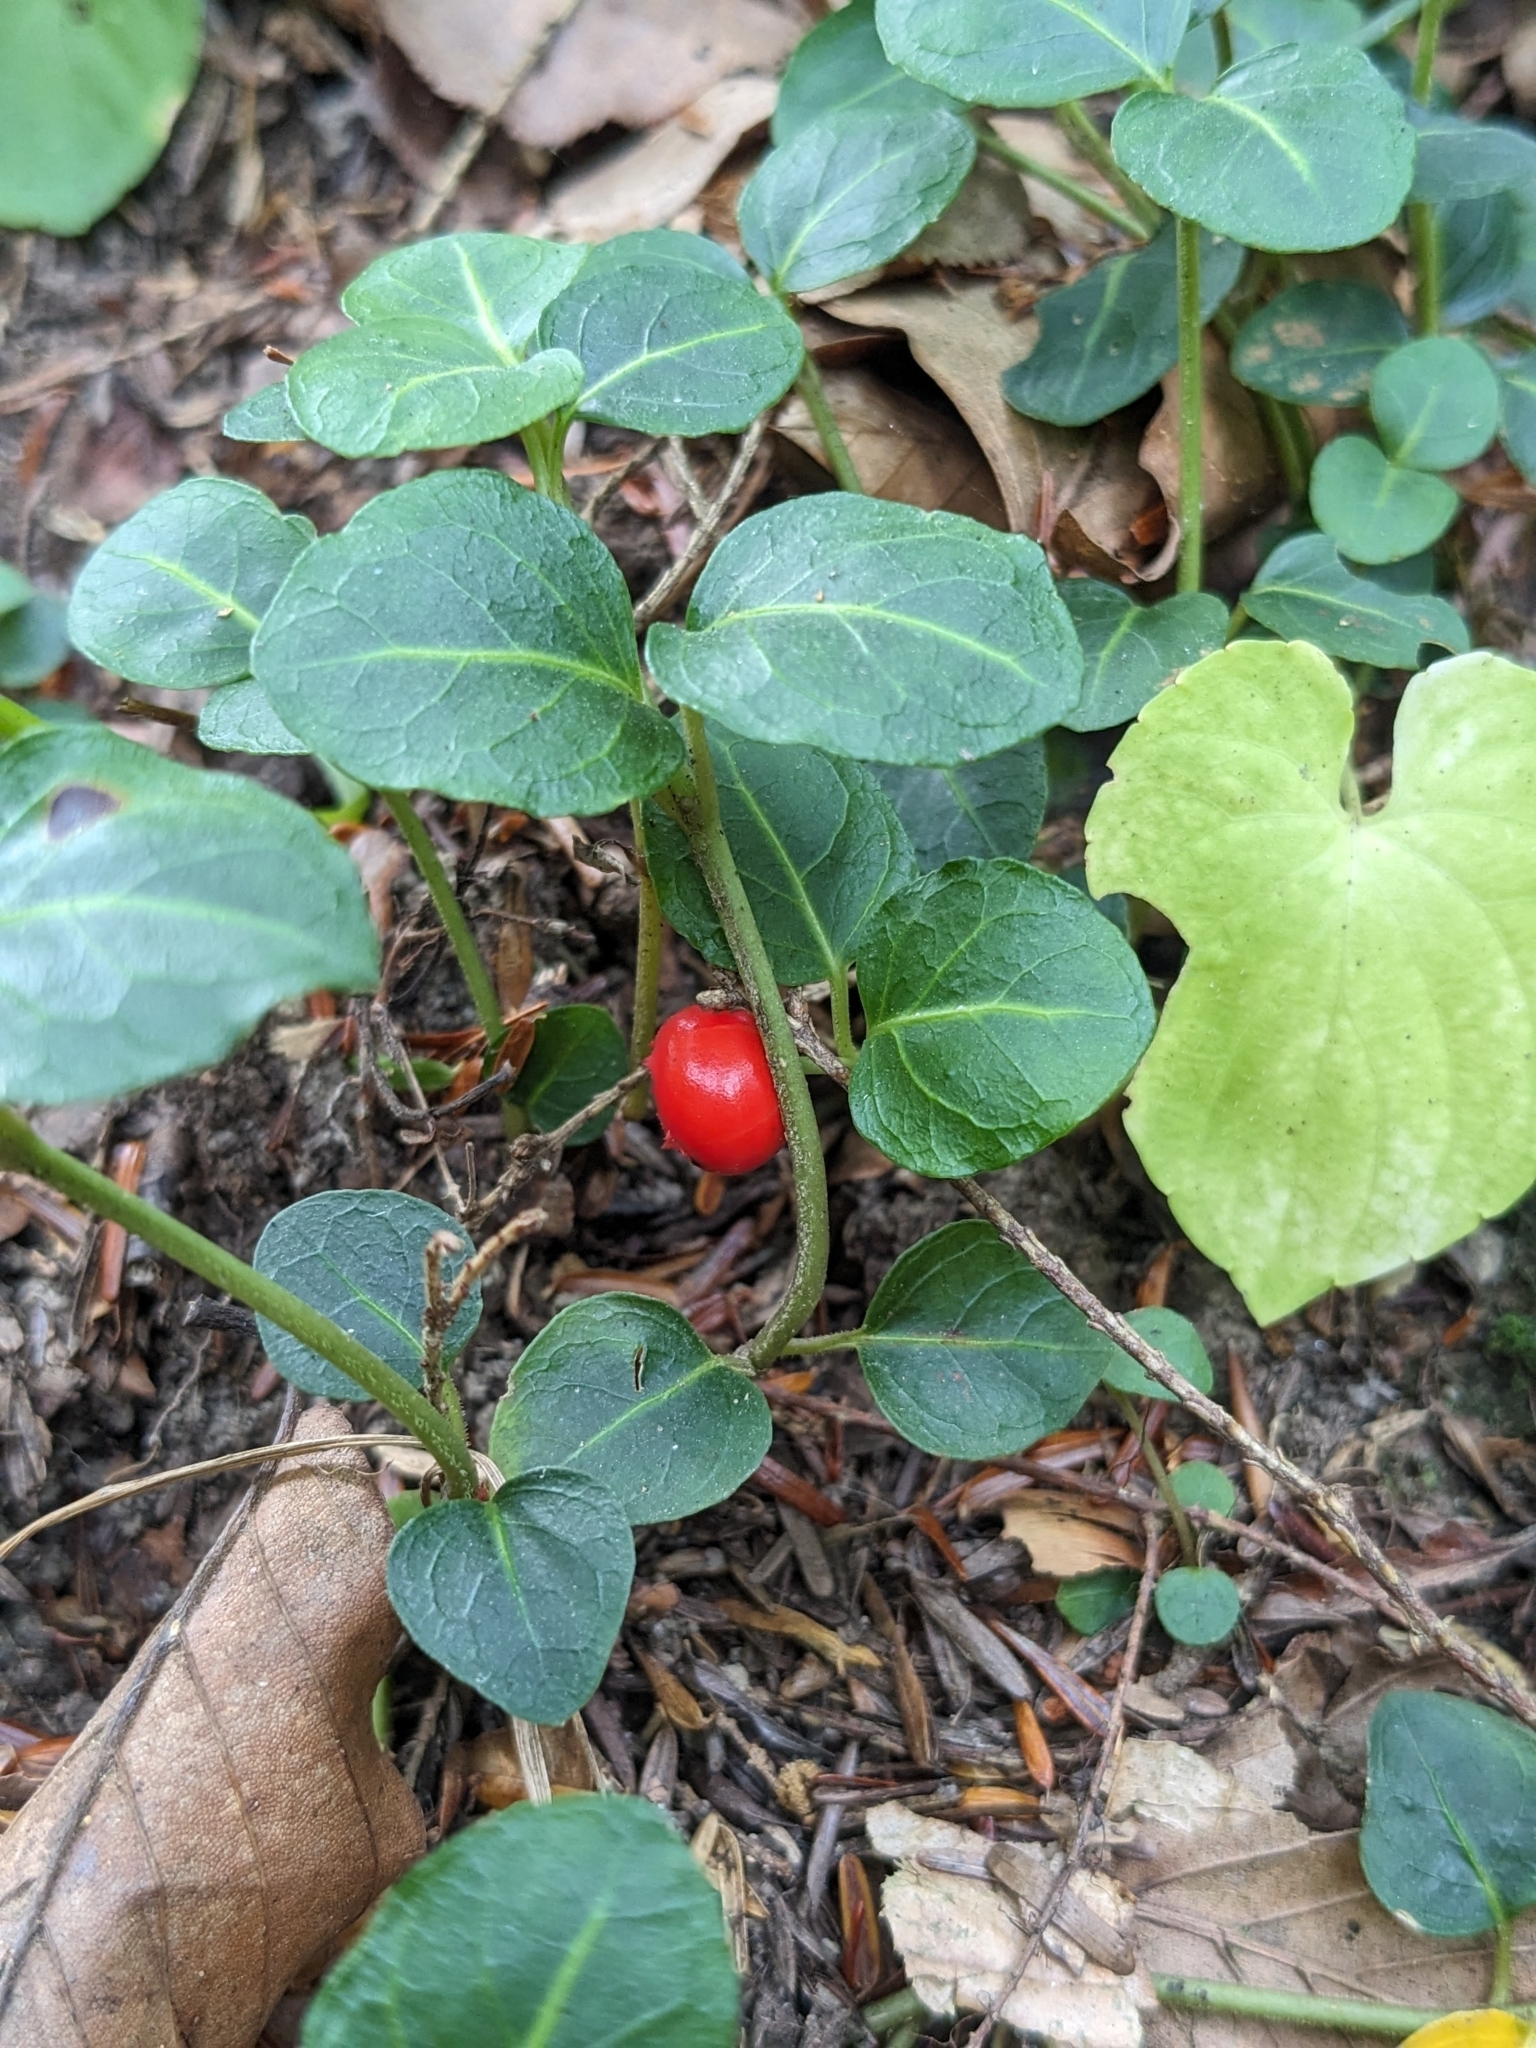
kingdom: Plantae
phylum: Tracheophyta
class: Magnoliopsida
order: Gentianales
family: Rubiaceae
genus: Mitchella
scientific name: Mitchella repens
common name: Partridge-berry
